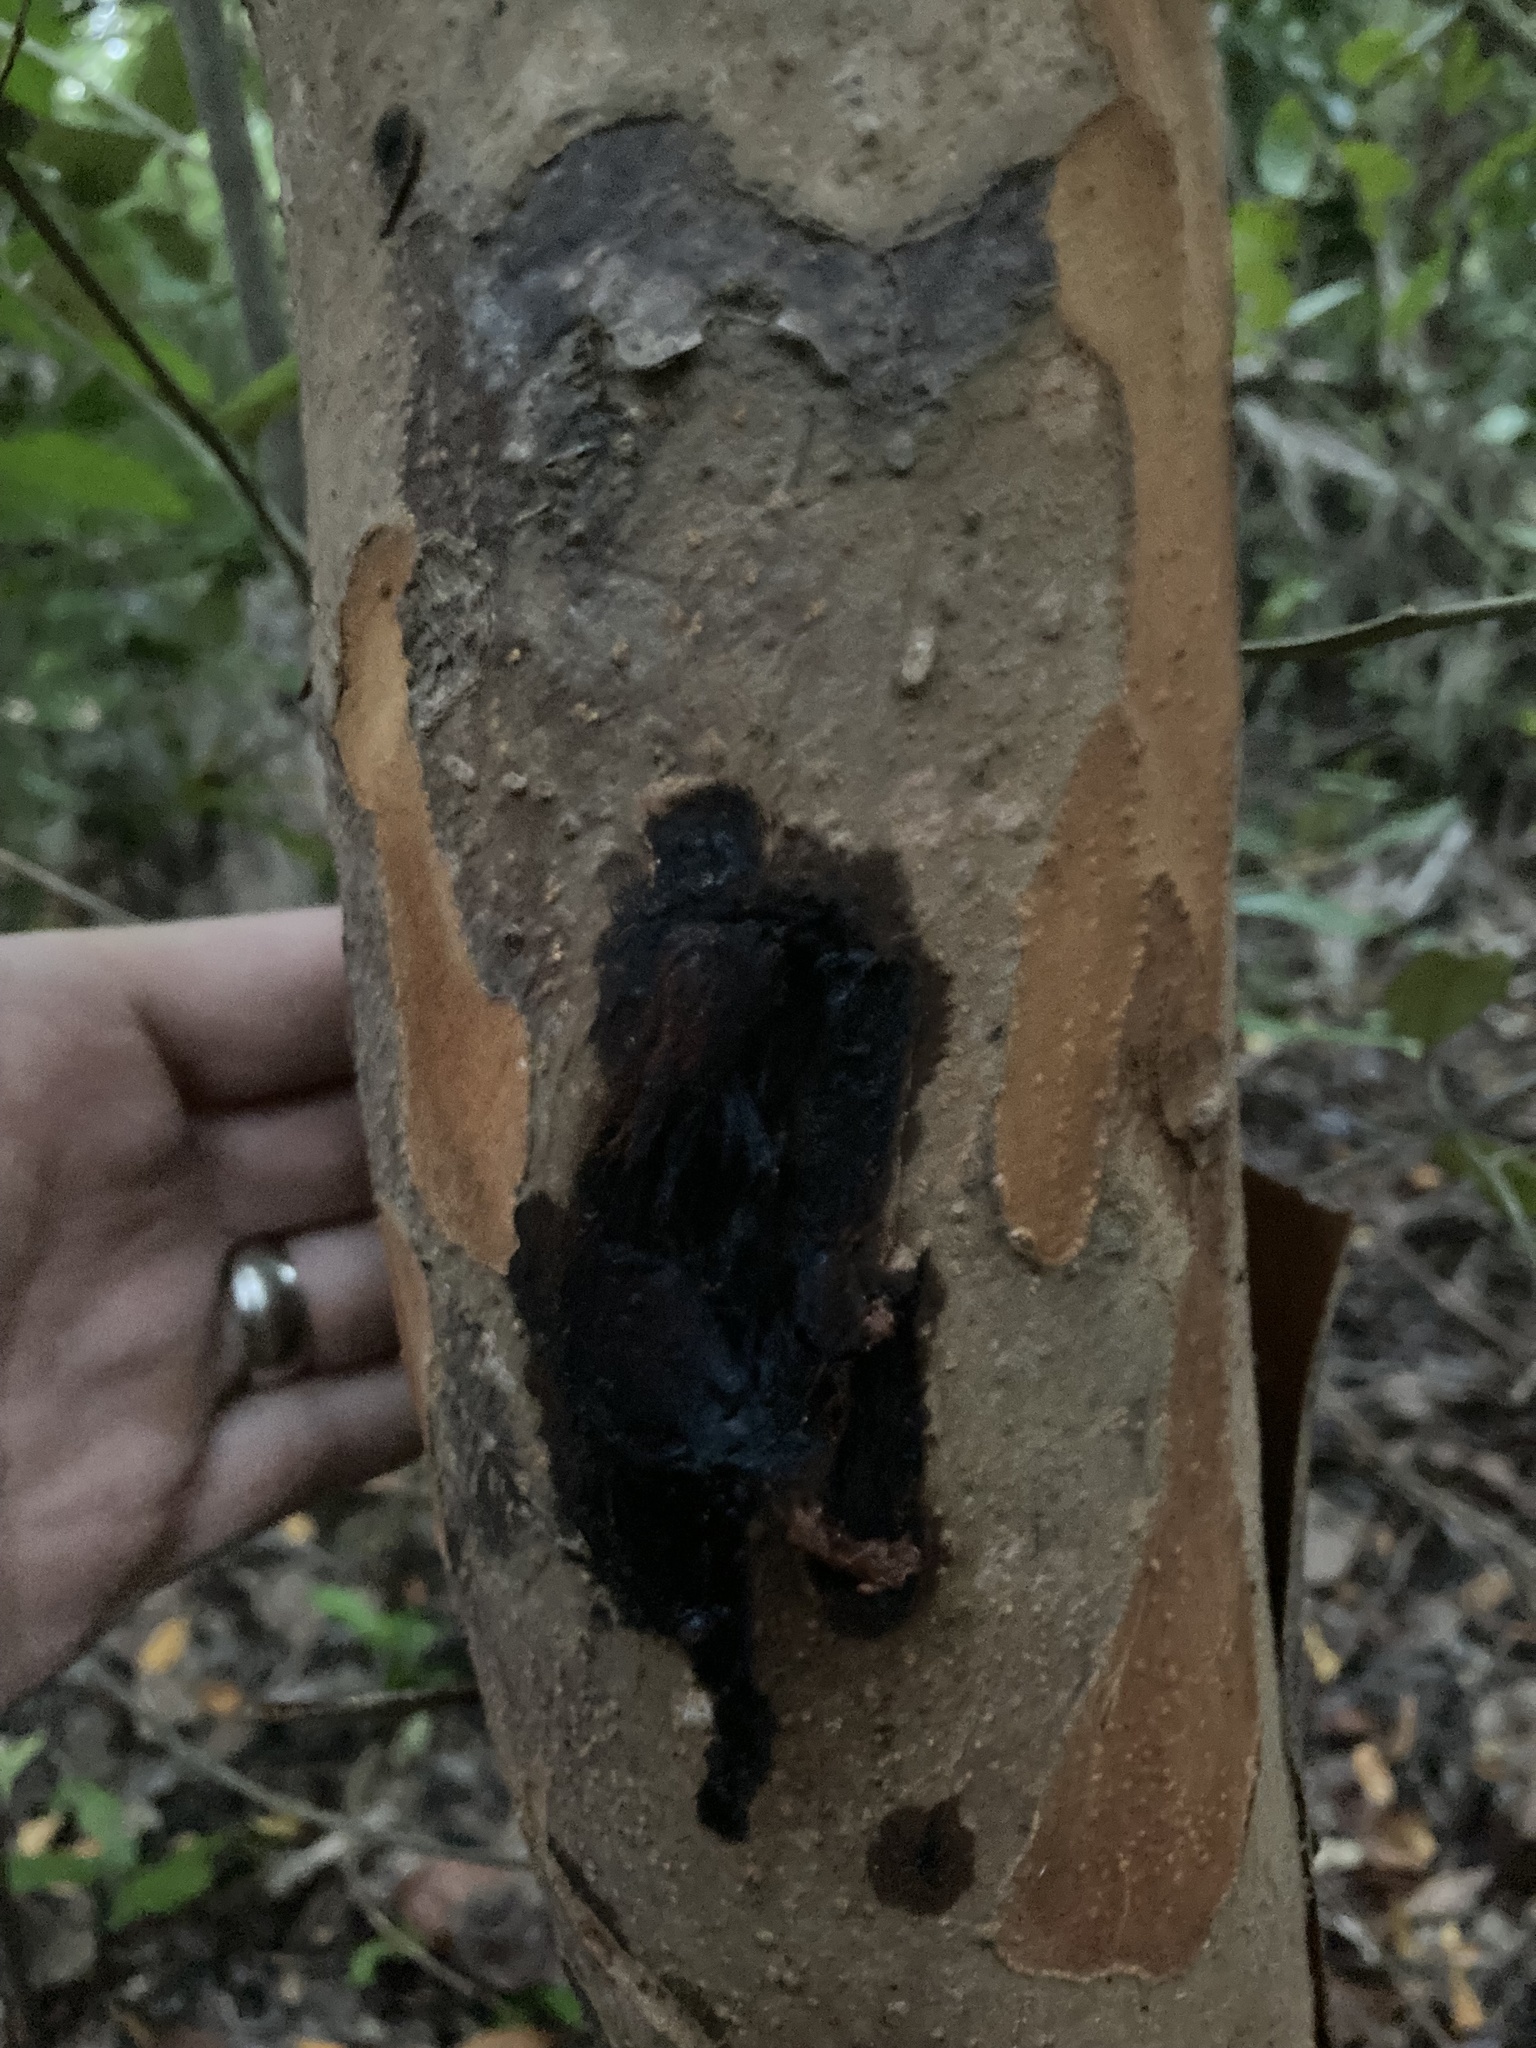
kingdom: Plantae
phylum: Tracheophyta
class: Magnoliopsida
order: Sapindales
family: Anacardiaceae
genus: Metopium
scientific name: Metopium toxiferum
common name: Florida poisontree
